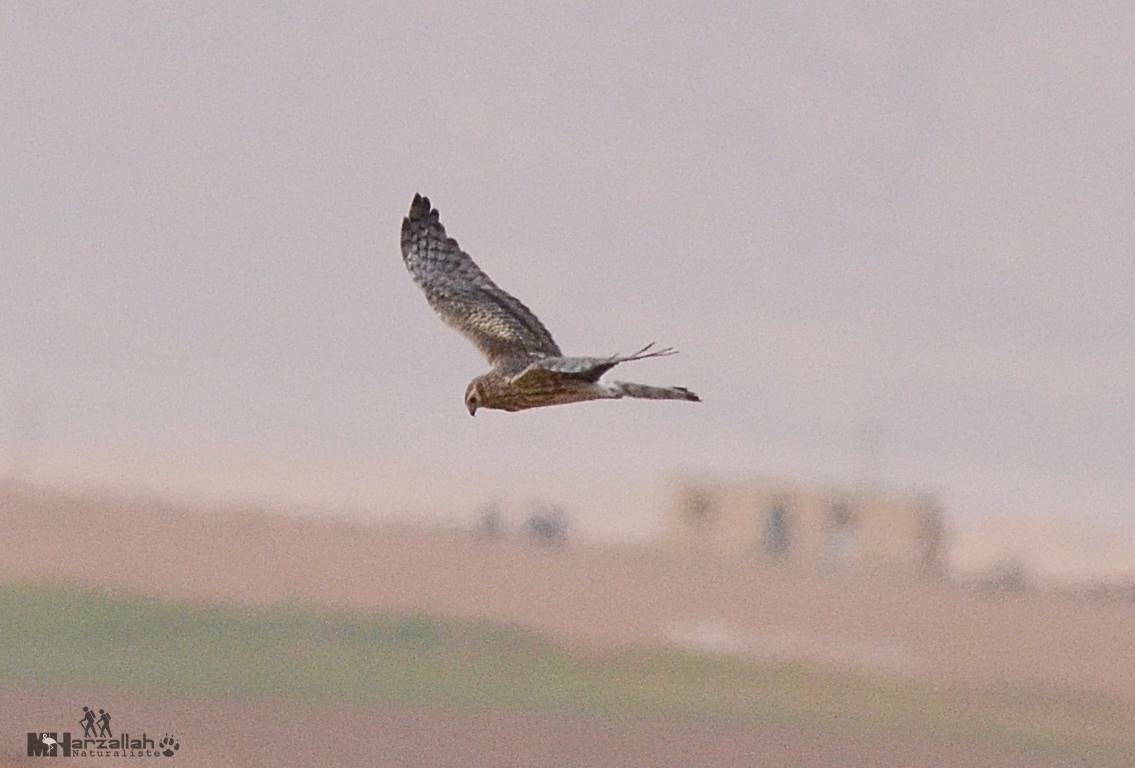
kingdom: Animalia
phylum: Chordata
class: Aves
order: Accipitriformes
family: Accipitridae
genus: Circus
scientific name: Circus pygargus
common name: Montagu's harrier
